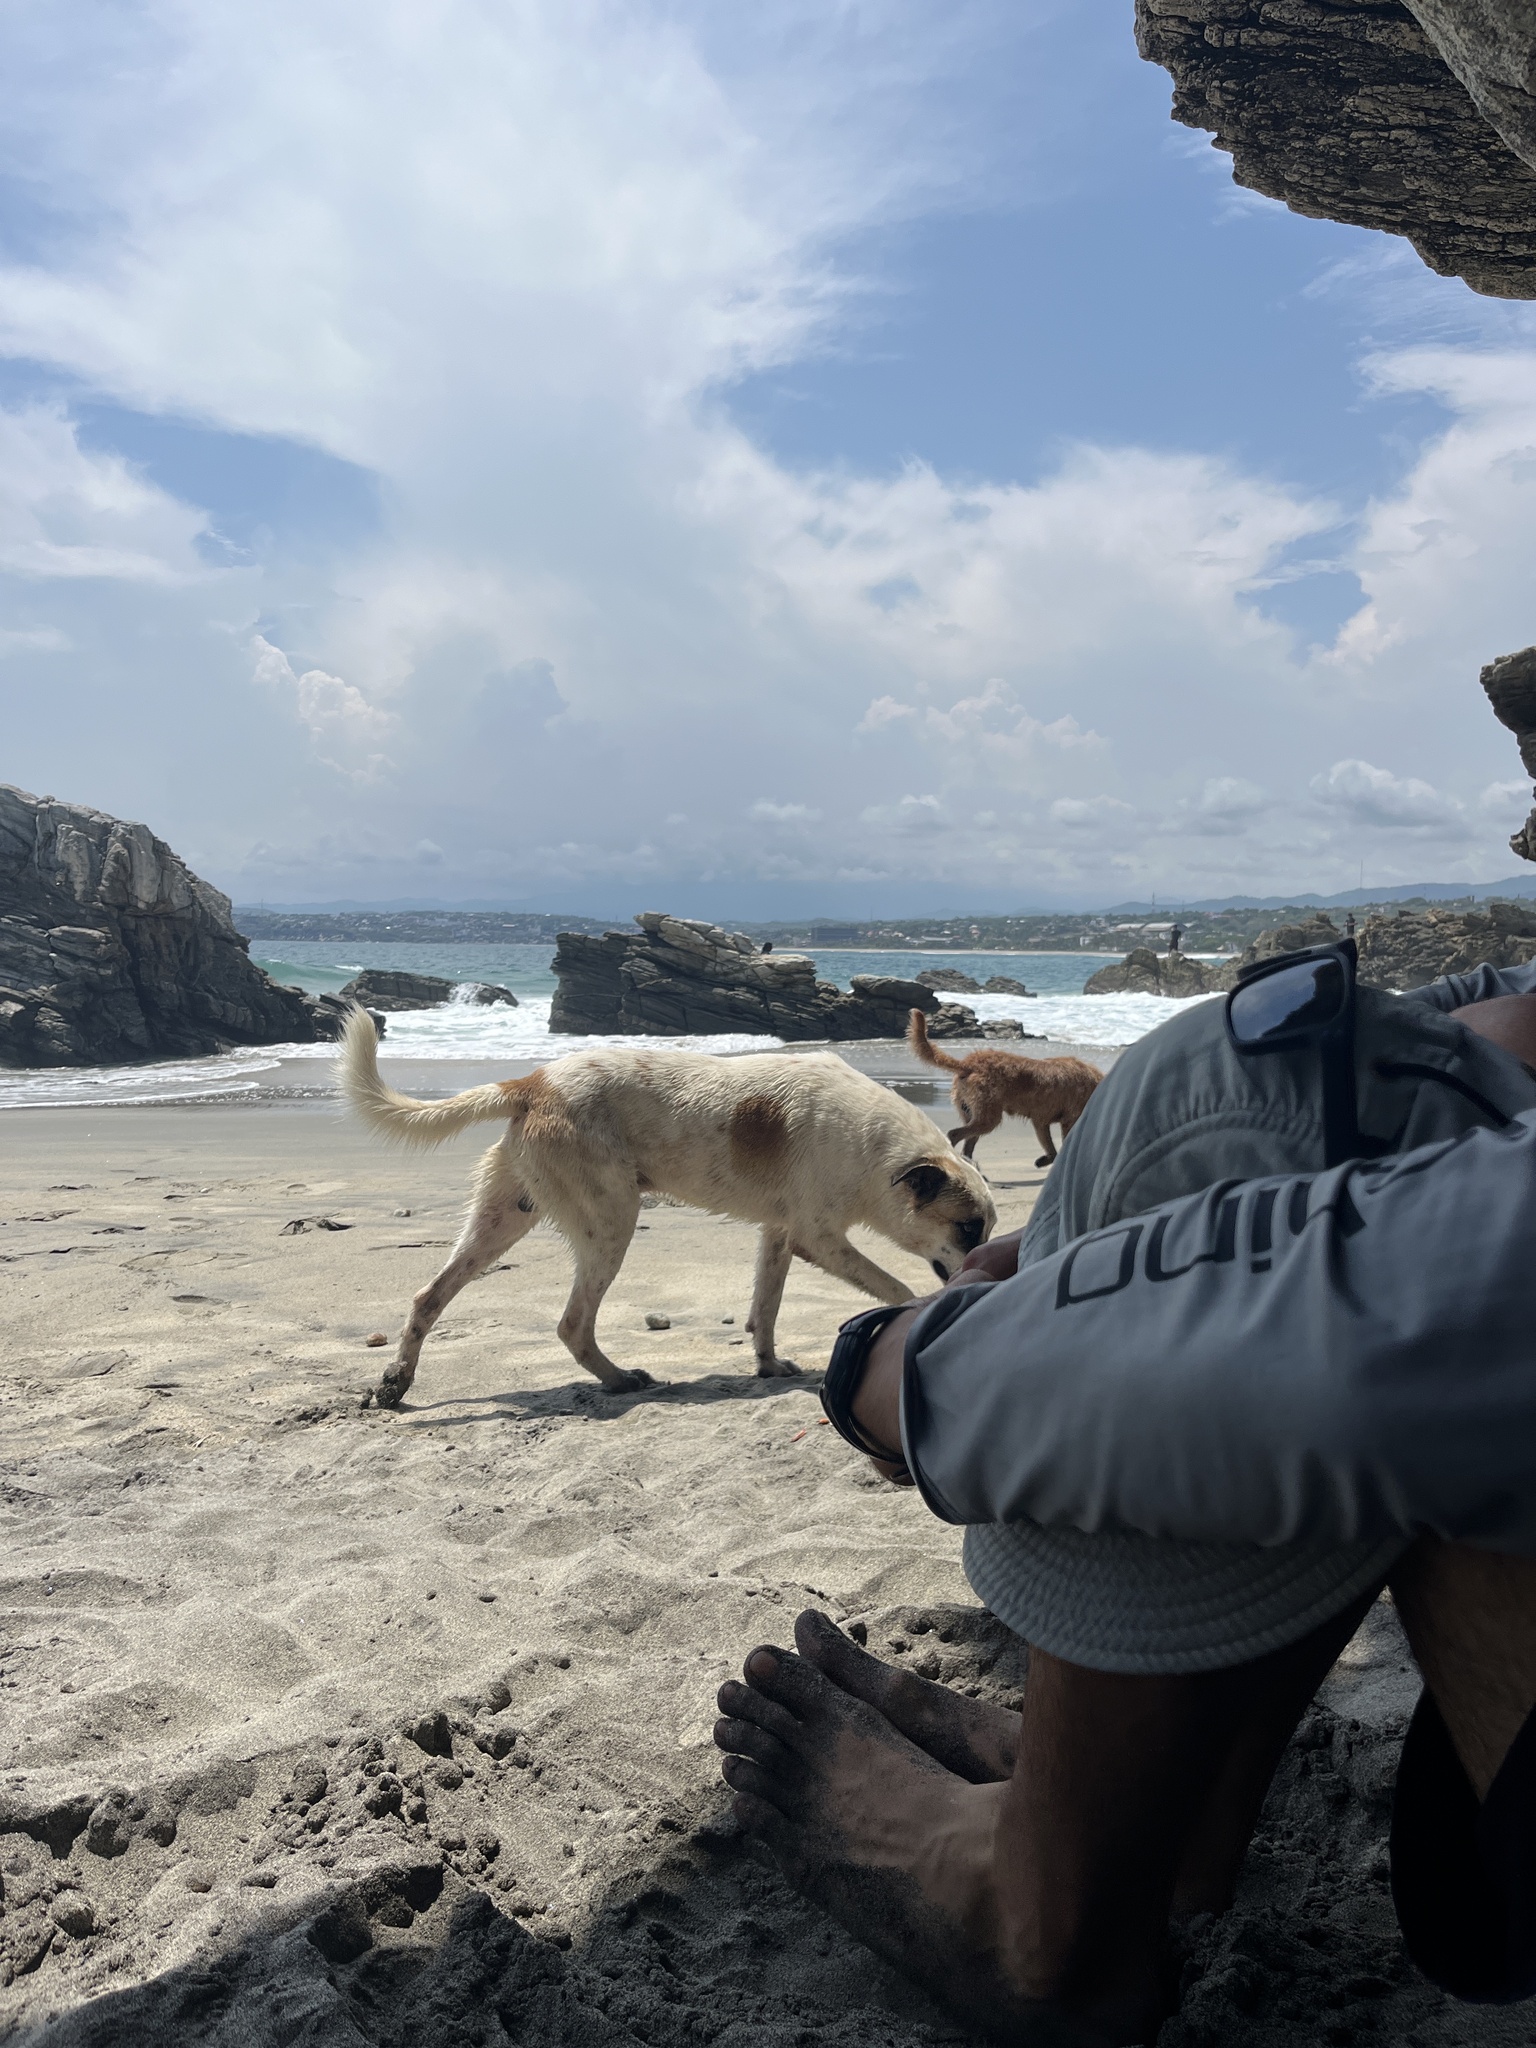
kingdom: Animalia
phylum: Chordata
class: Mammalia
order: Carnivora
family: Canidae
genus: Canis
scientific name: Canis lupus
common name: Gray wolf
